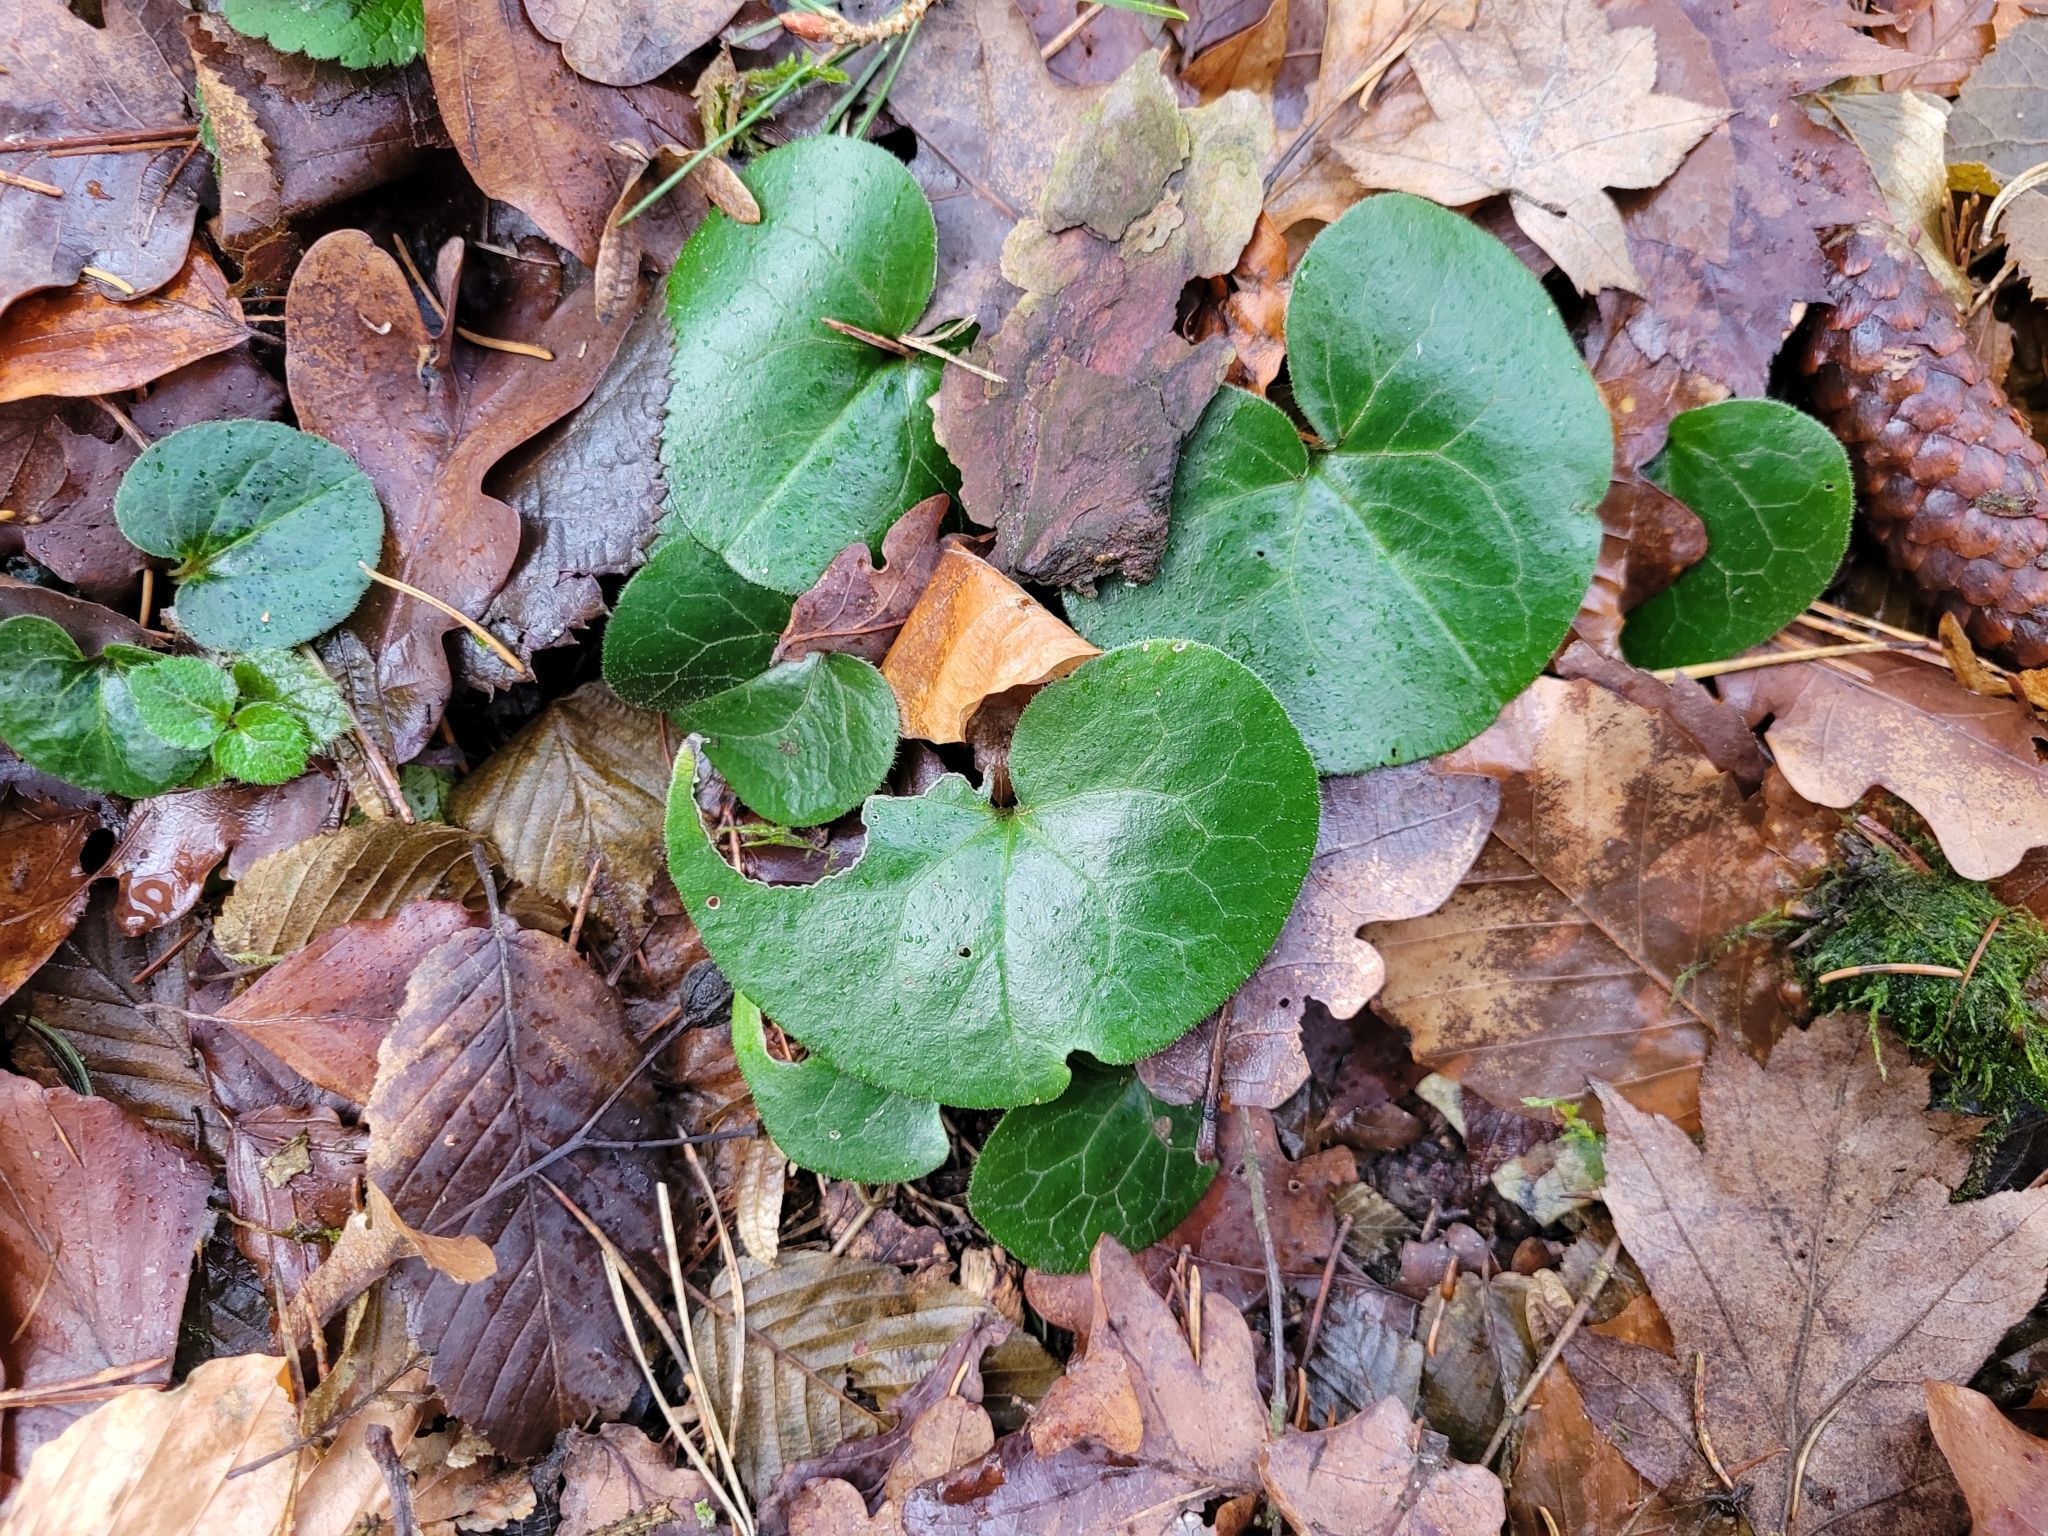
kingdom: Plantae
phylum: Tracheophyta
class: Magnoliopsida
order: Piperales
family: Aristolochiaceae
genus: Asarum
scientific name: Asarum europaeum
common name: Asarabacca
